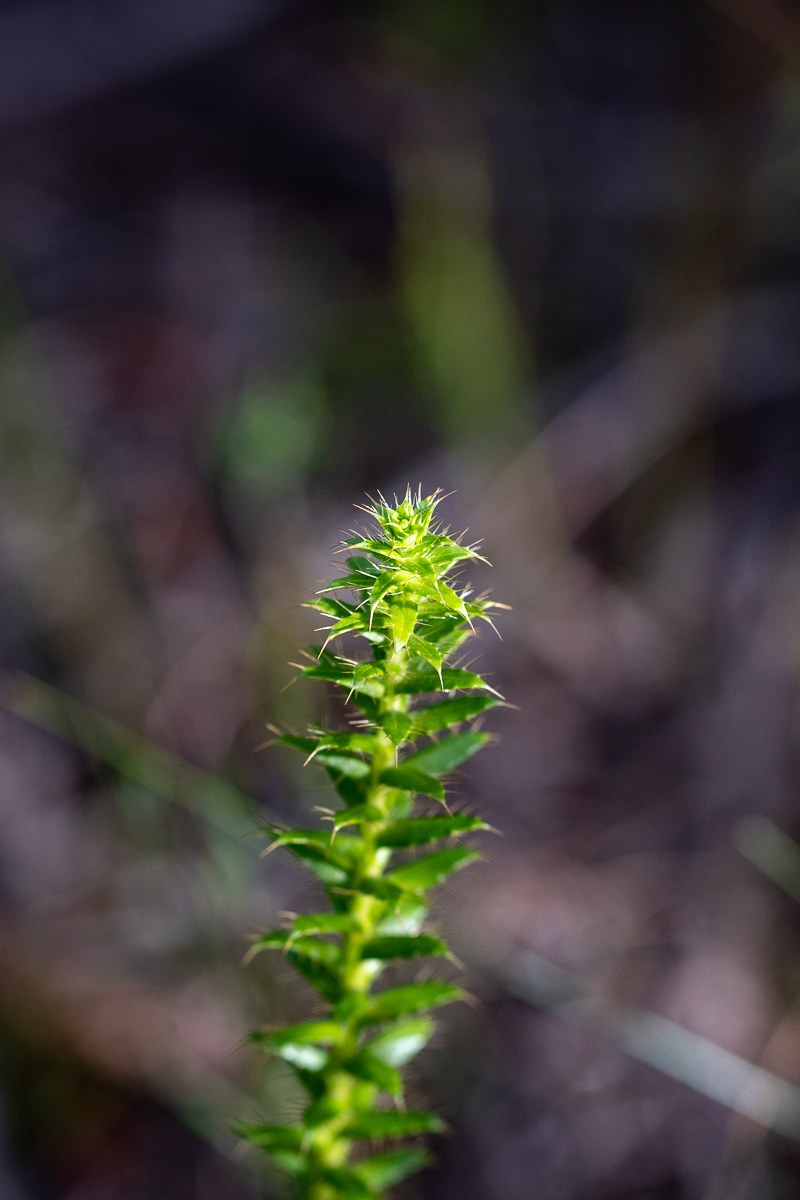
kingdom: Plantae
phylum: Tracheophyta
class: Magnoliopsida
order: Asterales
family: Asteraceae
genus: Cullumia
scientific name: Cullumia setosa
